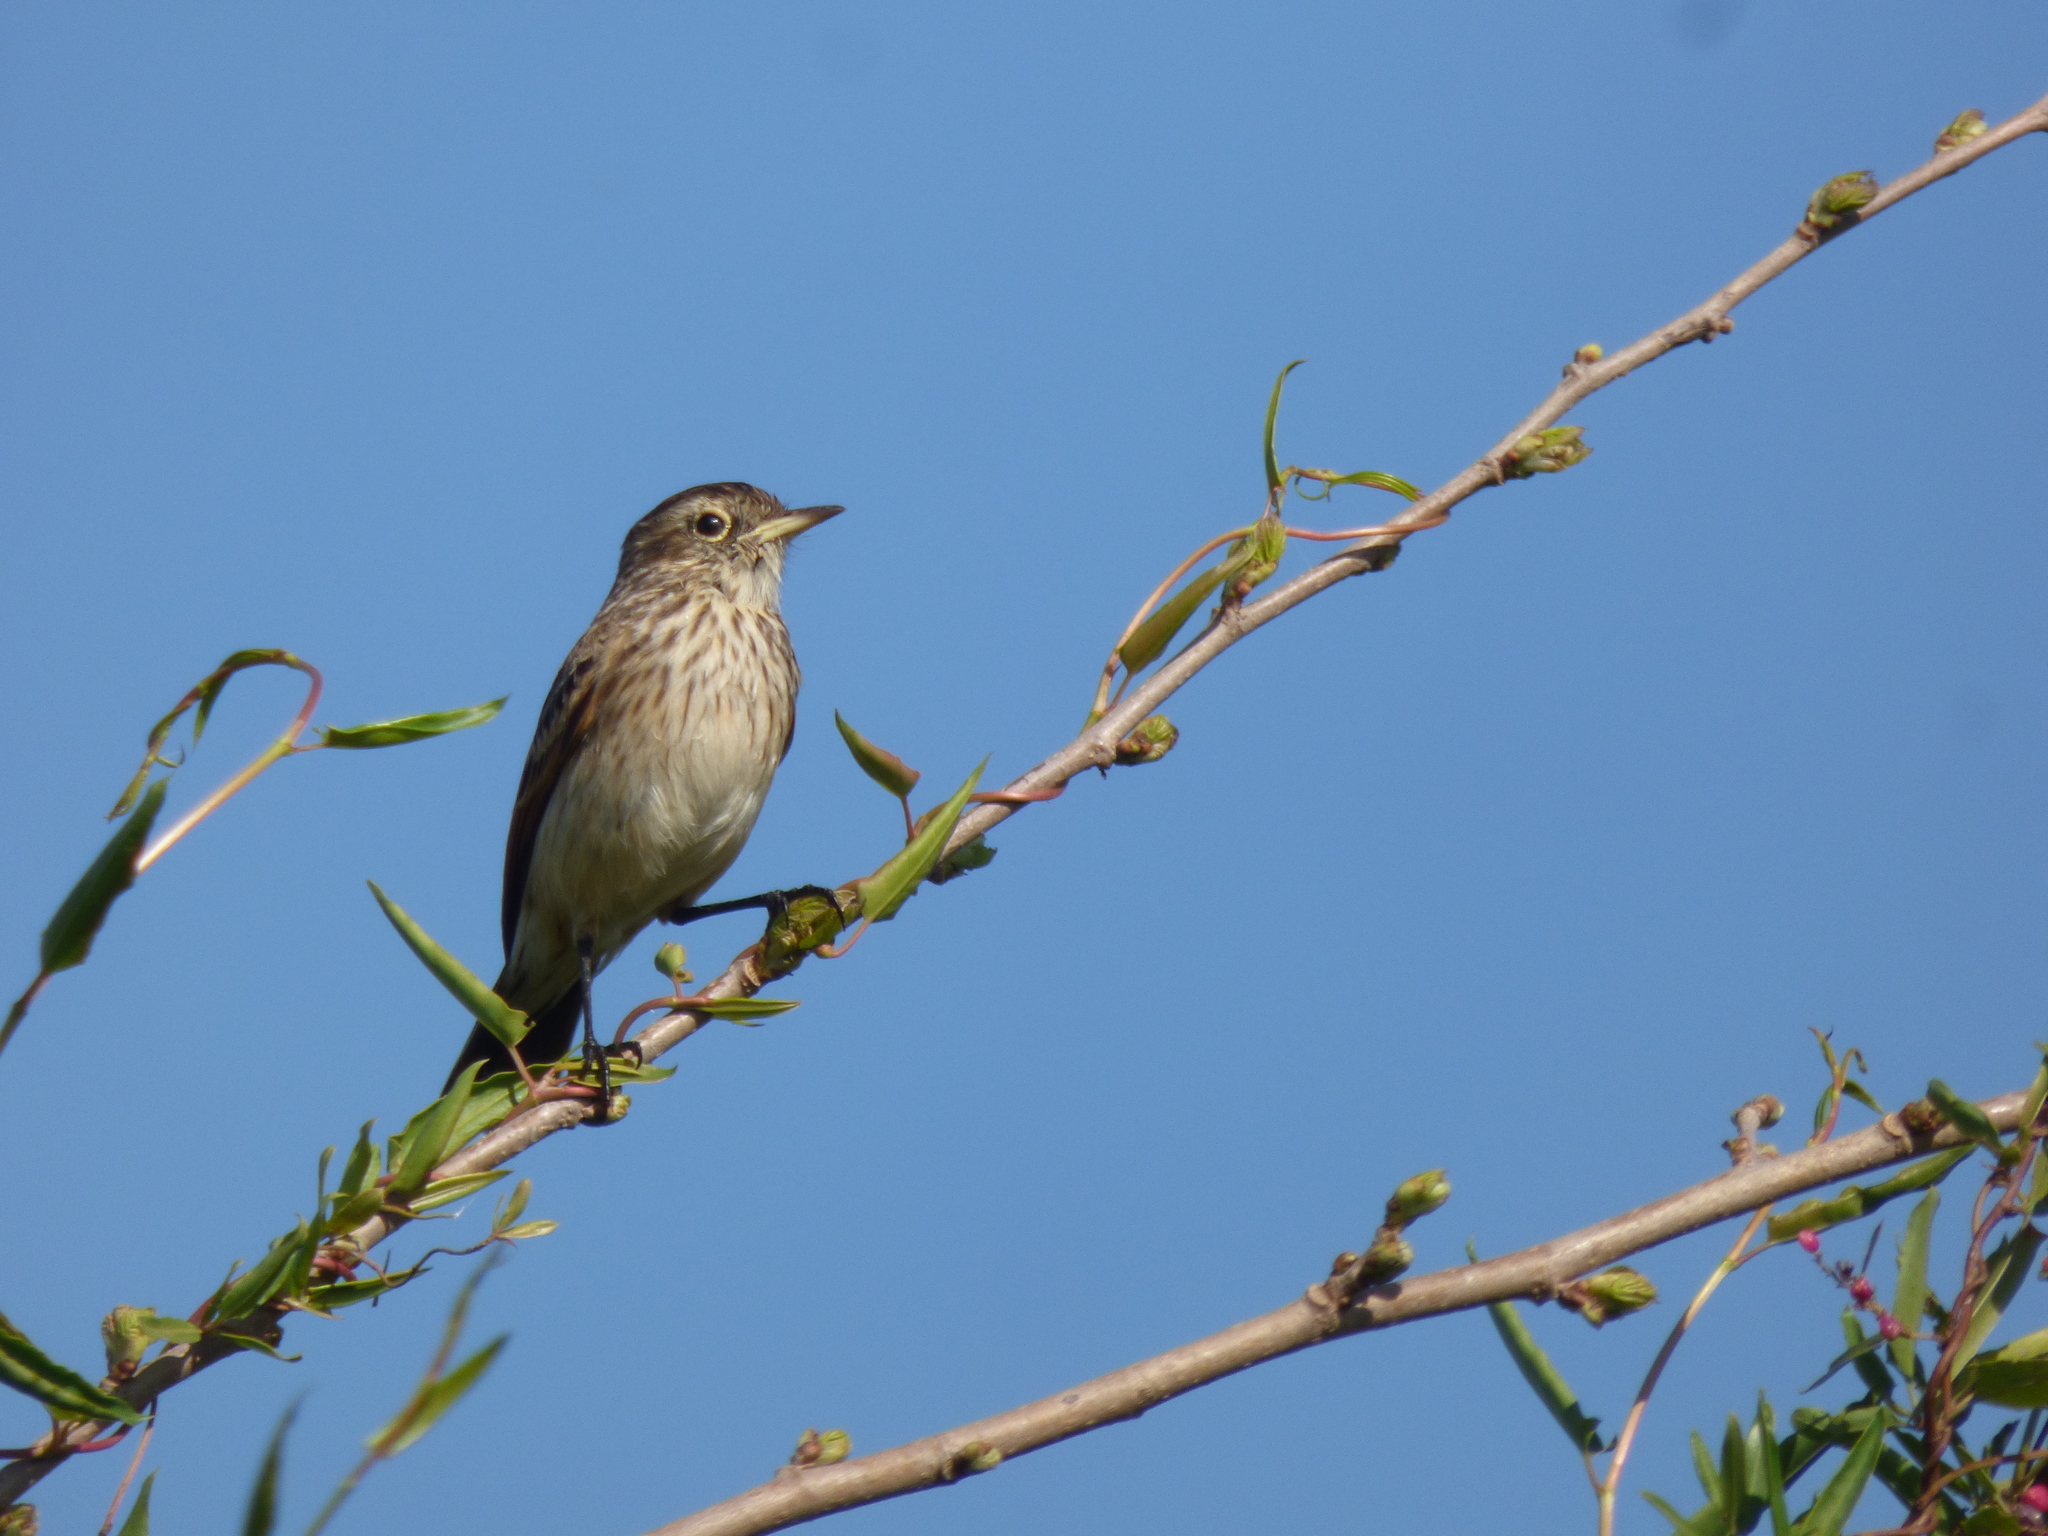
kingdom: Animalia
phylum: Chordata
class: Aves
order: Passeriformes
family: Tyrannidae
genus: Hymenops
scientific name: Hymenops perspicillatus
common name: Spectacled tyrant
